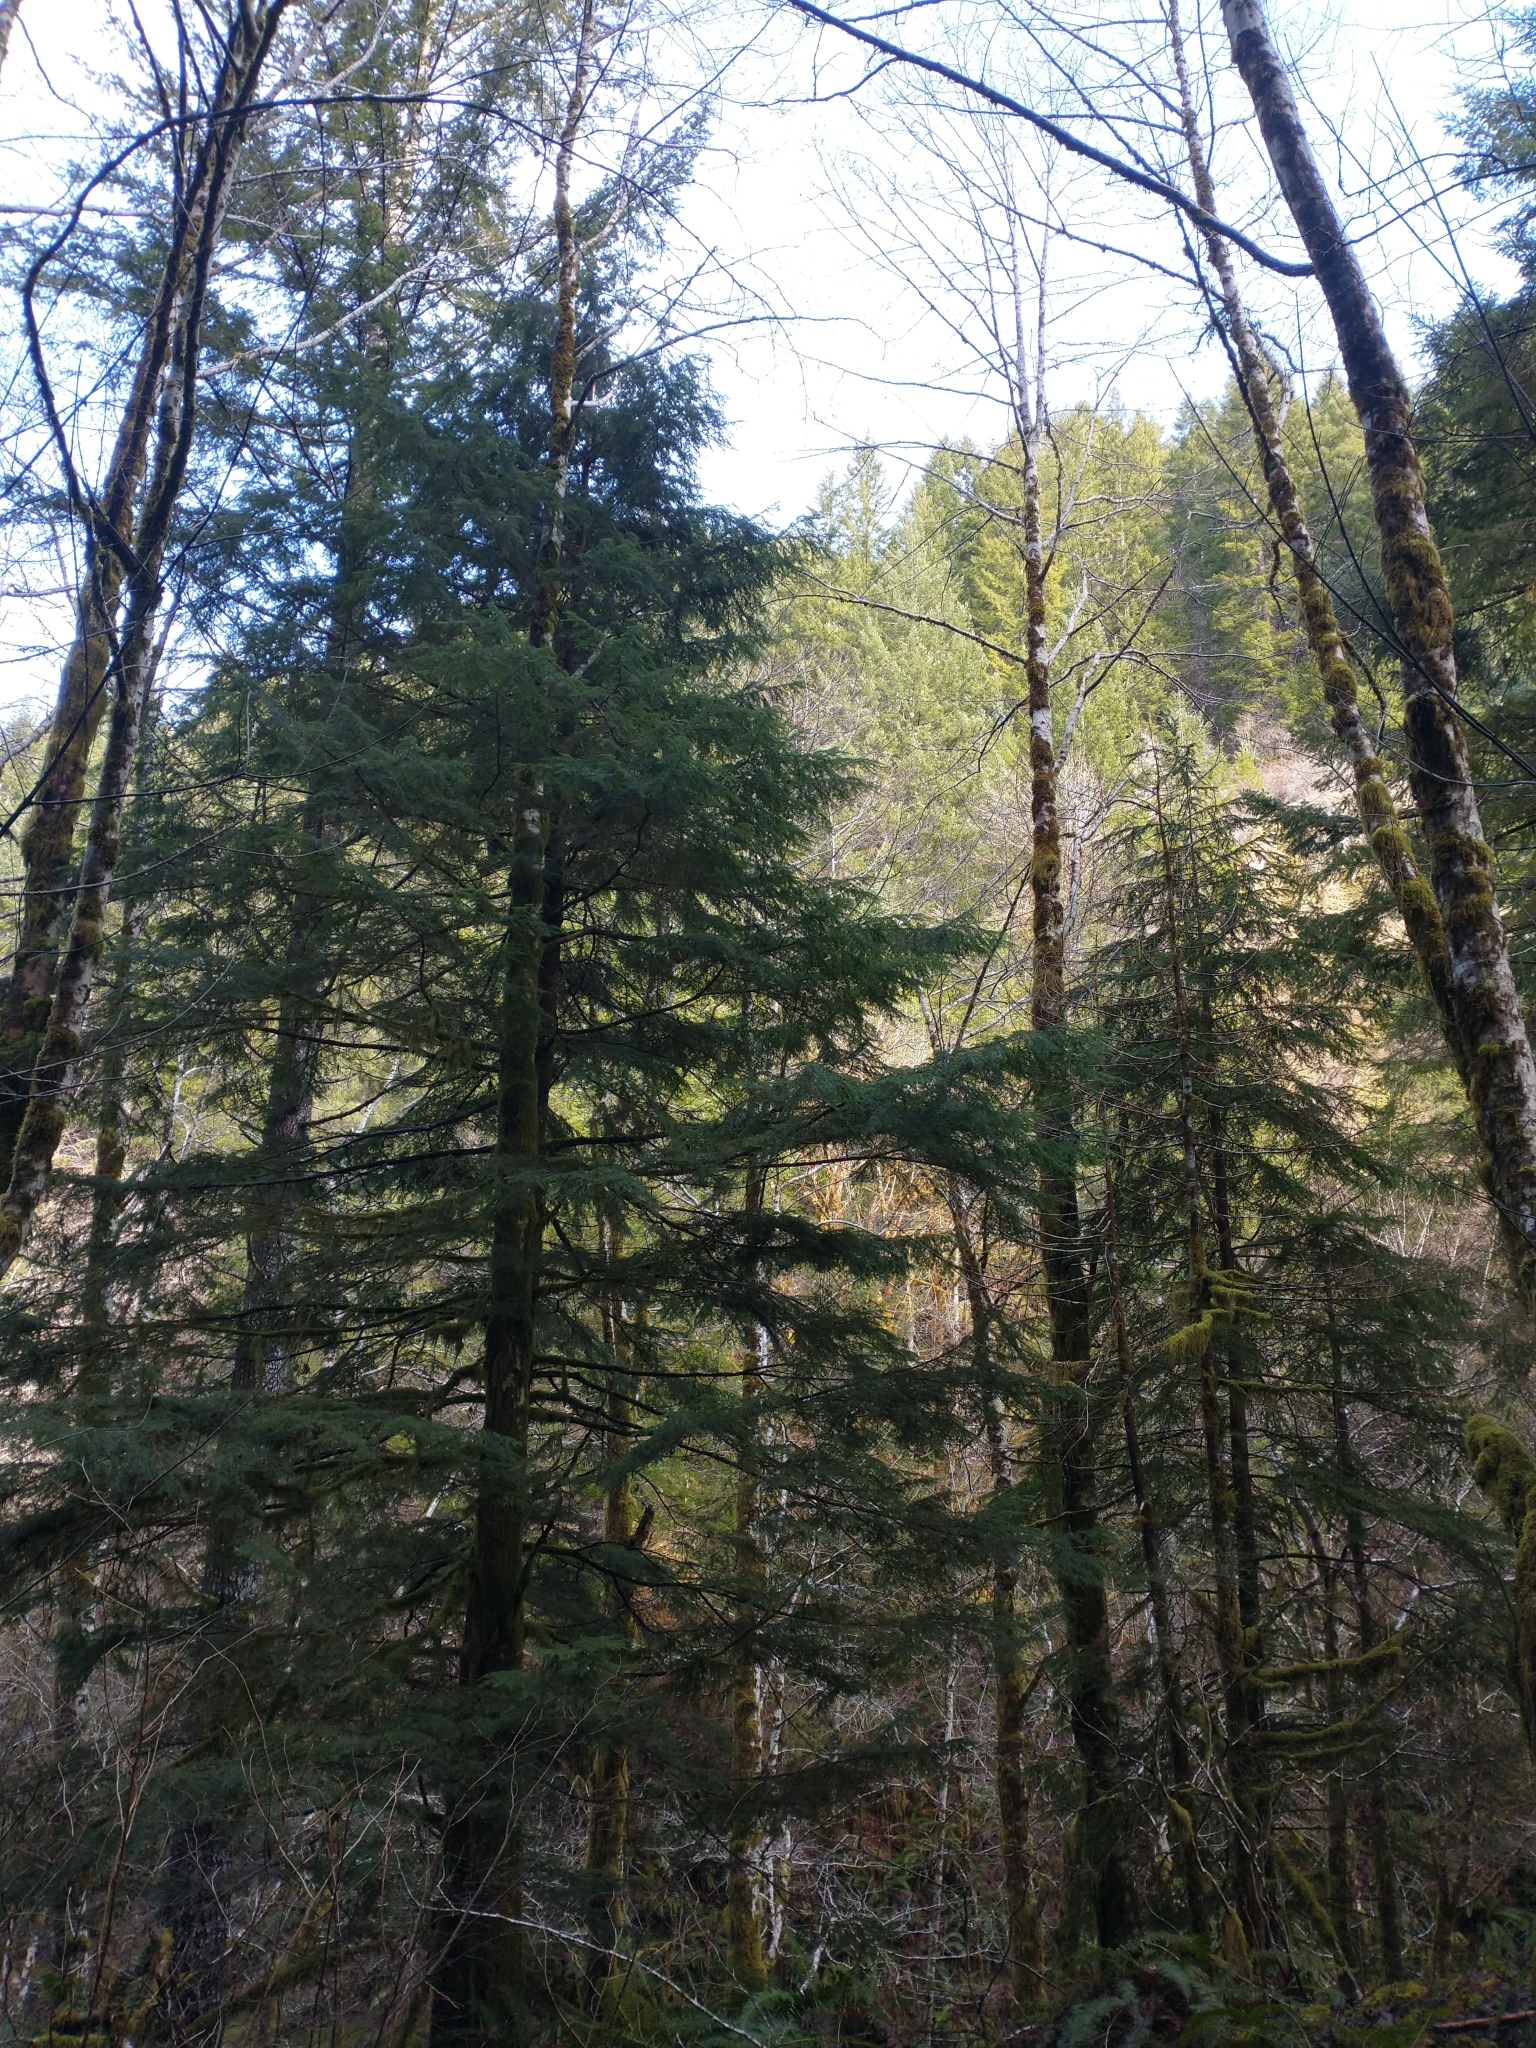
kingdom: Plantae
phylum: Tracheophyta
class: Pinopsida
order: Pinales
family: Pinaceae
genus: Tsuga
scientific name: Tsuga heterophylla
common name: Western hemlock
